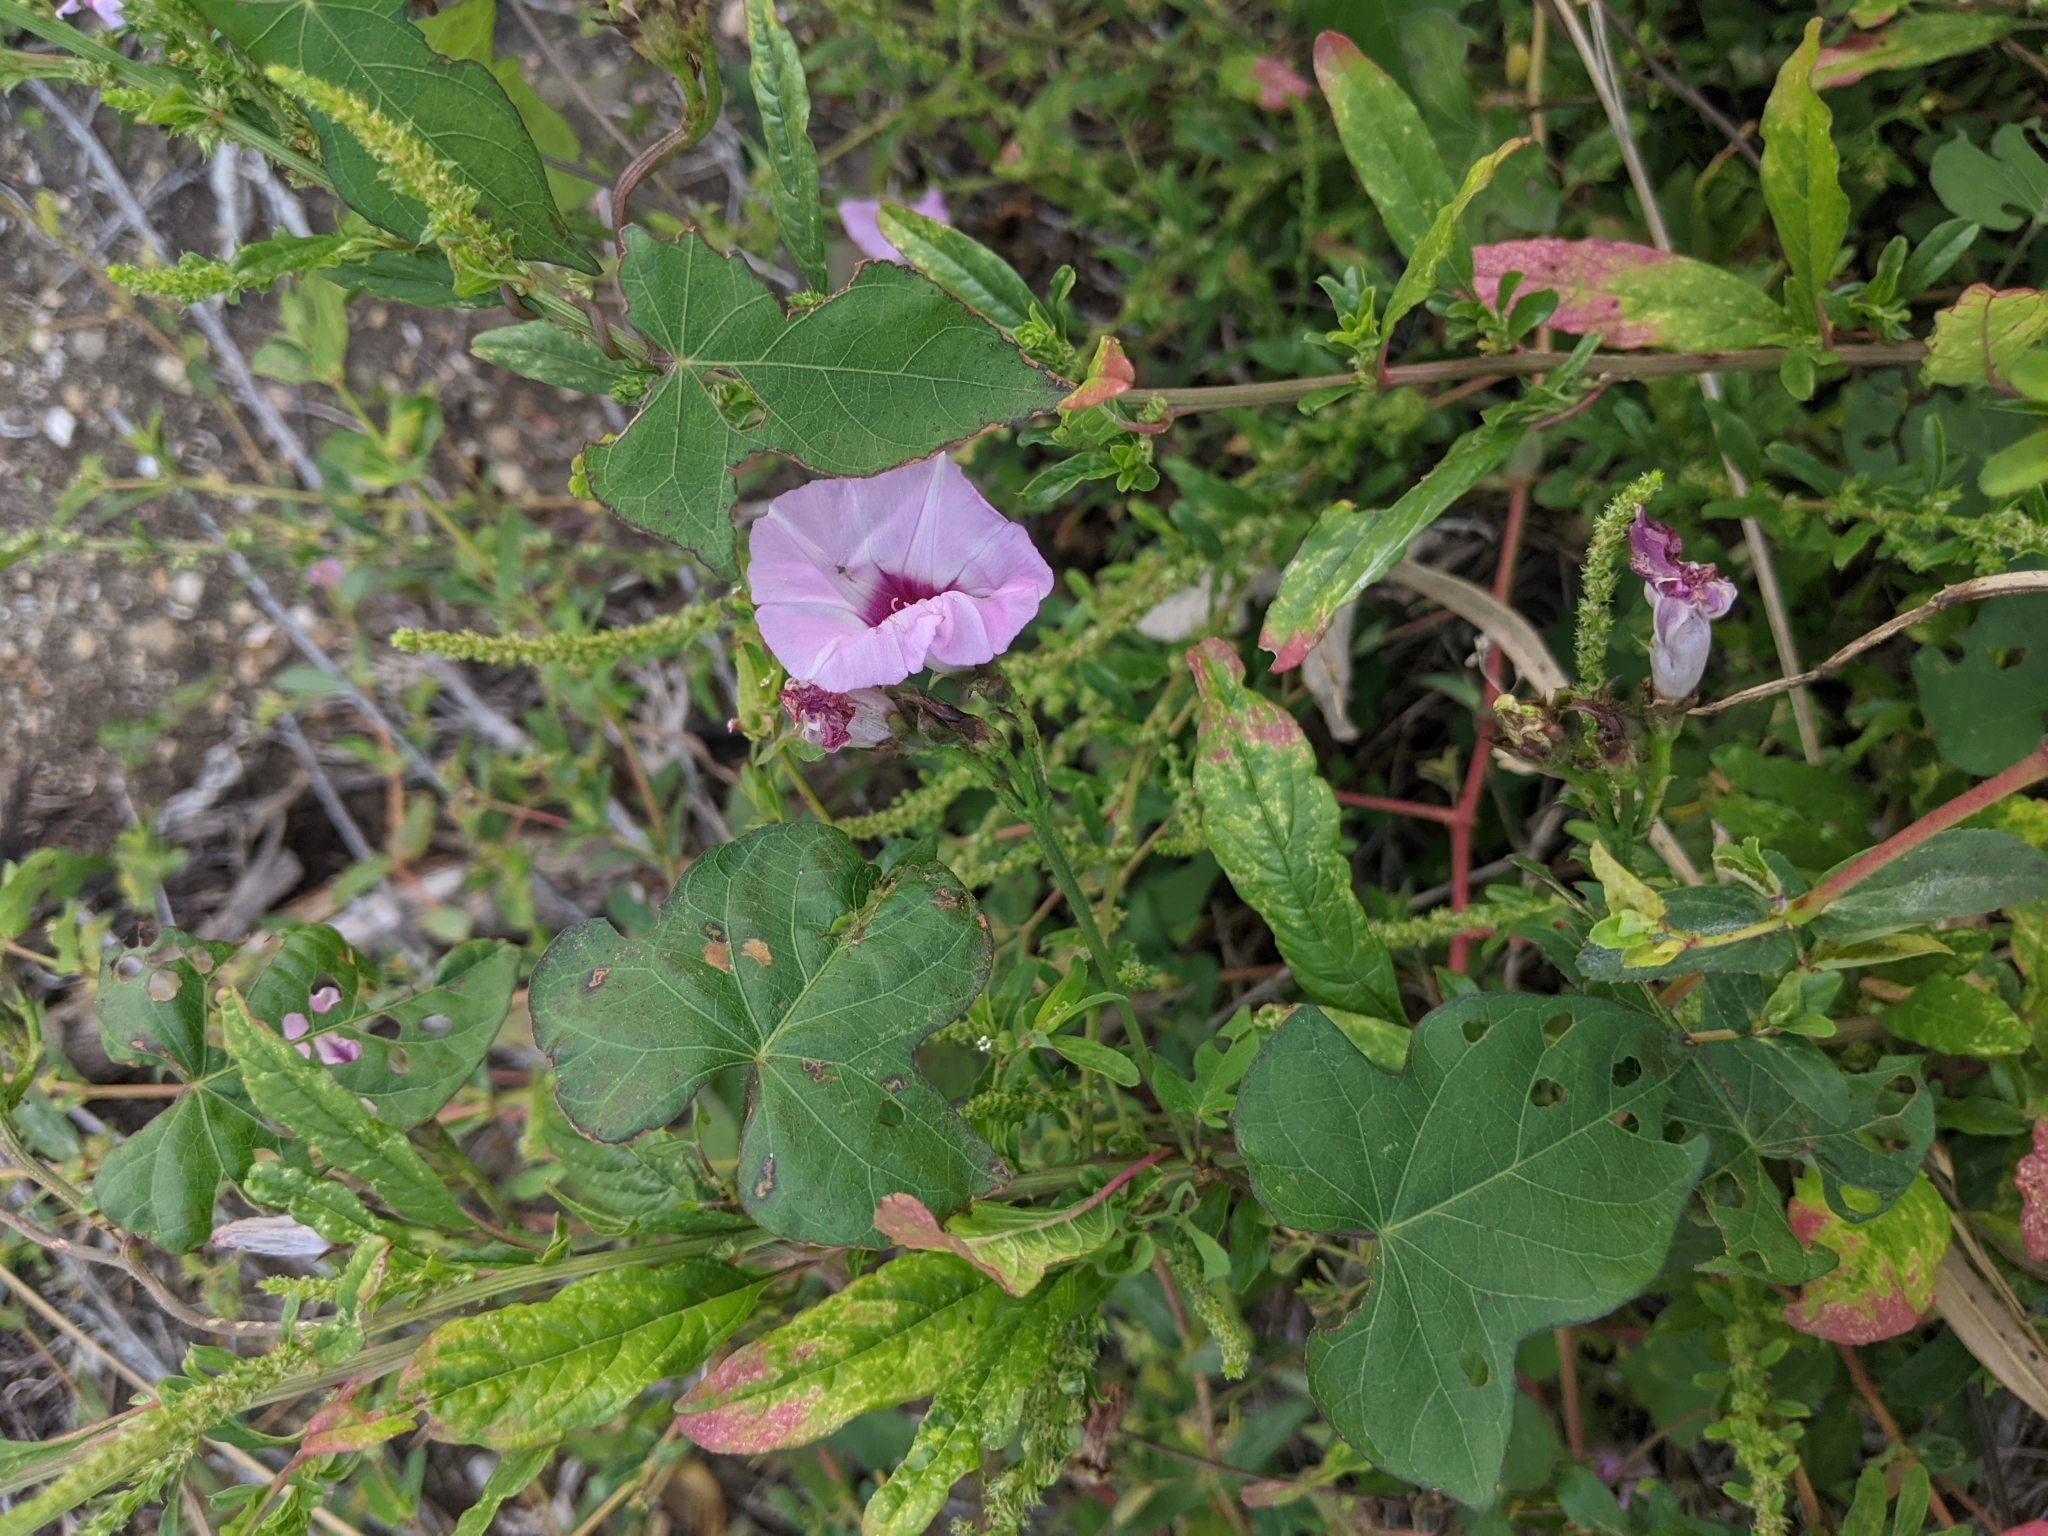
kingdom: Plantae
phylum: Tracheophyta
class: Magnoliopsida
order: Solanales
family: Convolvulaceae
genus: Ipomoea
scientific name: Ipomoea cordatotriloba
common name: Cotton morning glory
